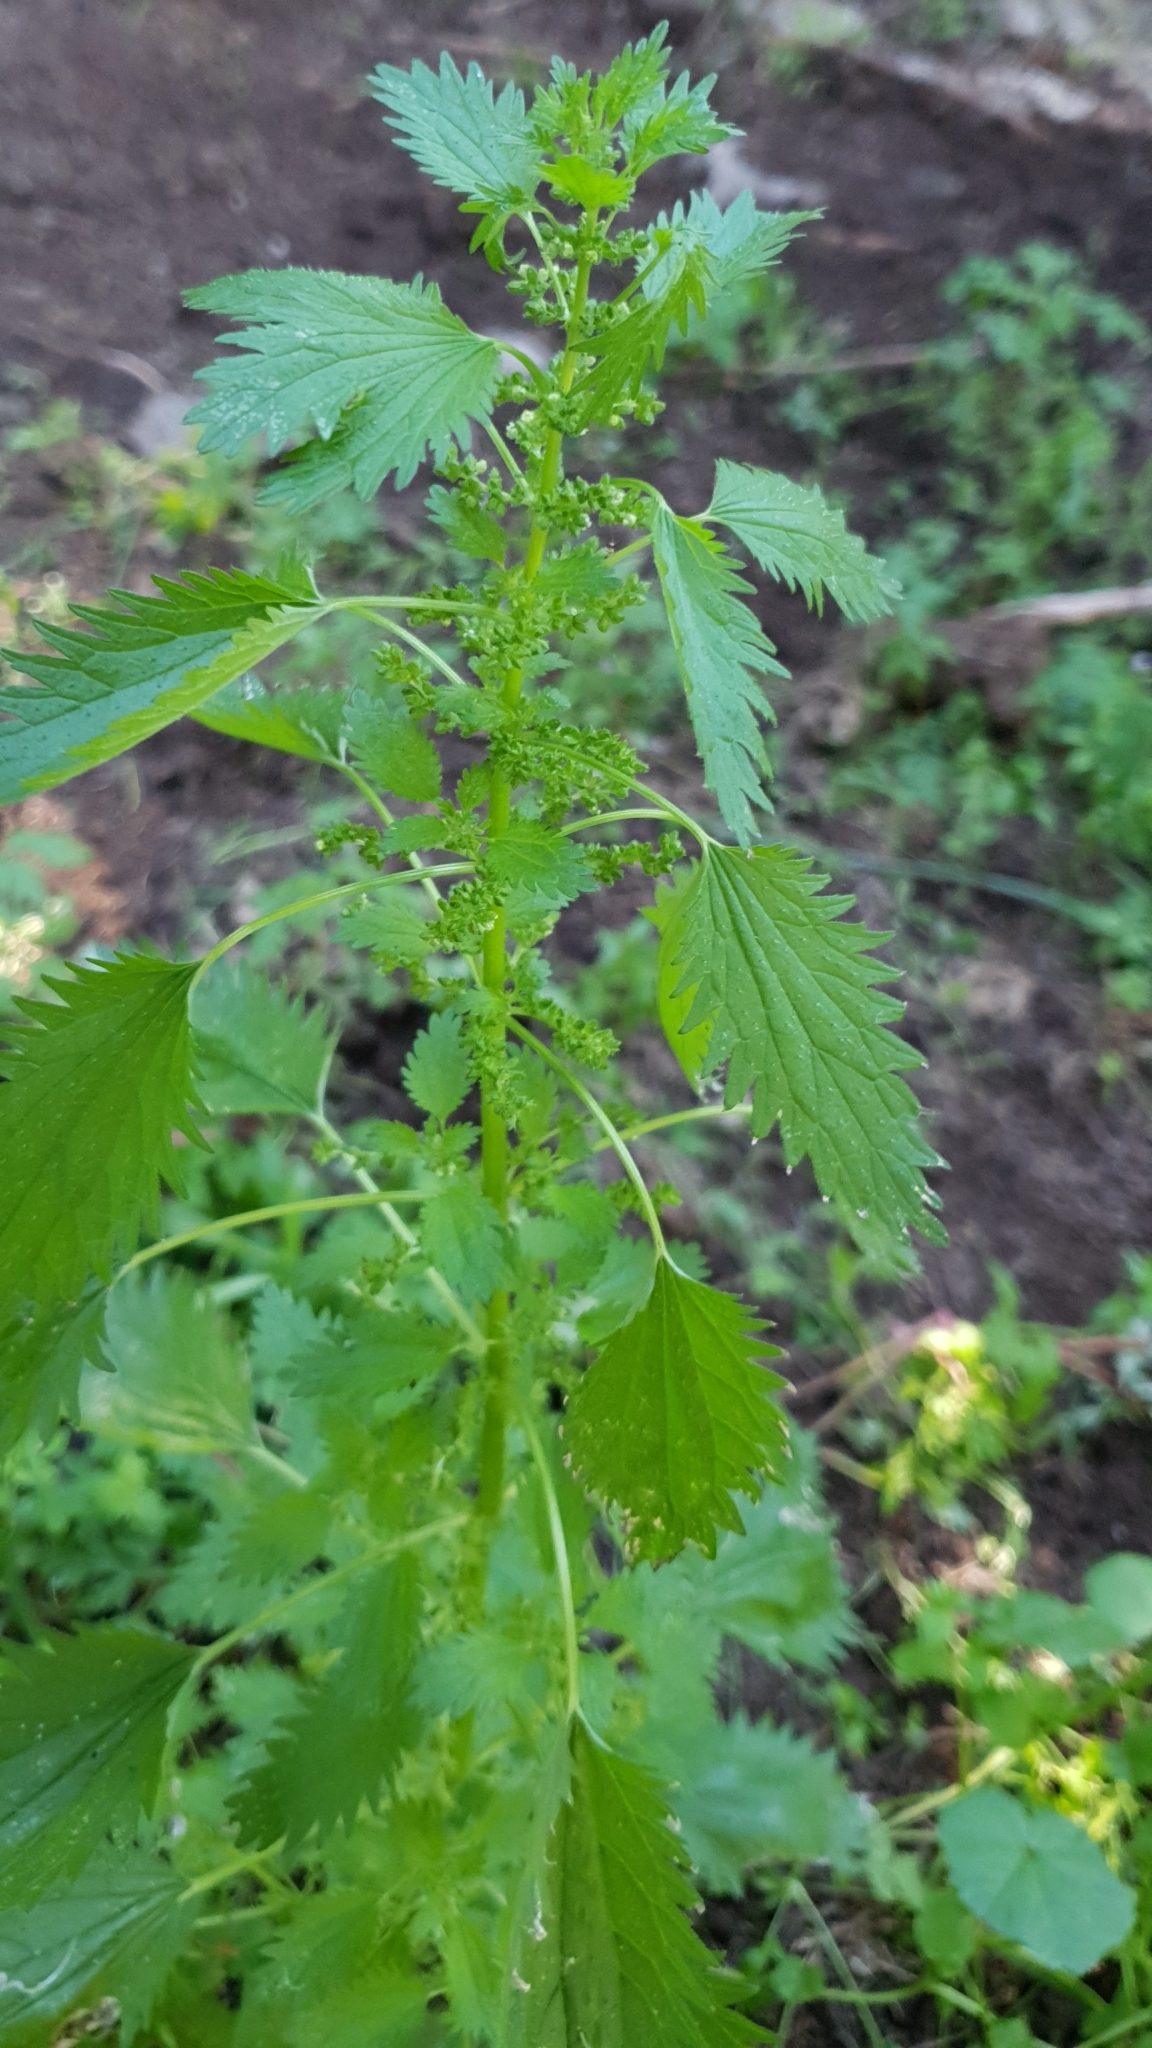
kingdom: Plantae
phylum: Tracheophyta
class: Magnoliopsida
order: Rosales
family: Urticaceae
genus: Urtica
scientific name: Urtica urens
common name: Dwarf nettle
